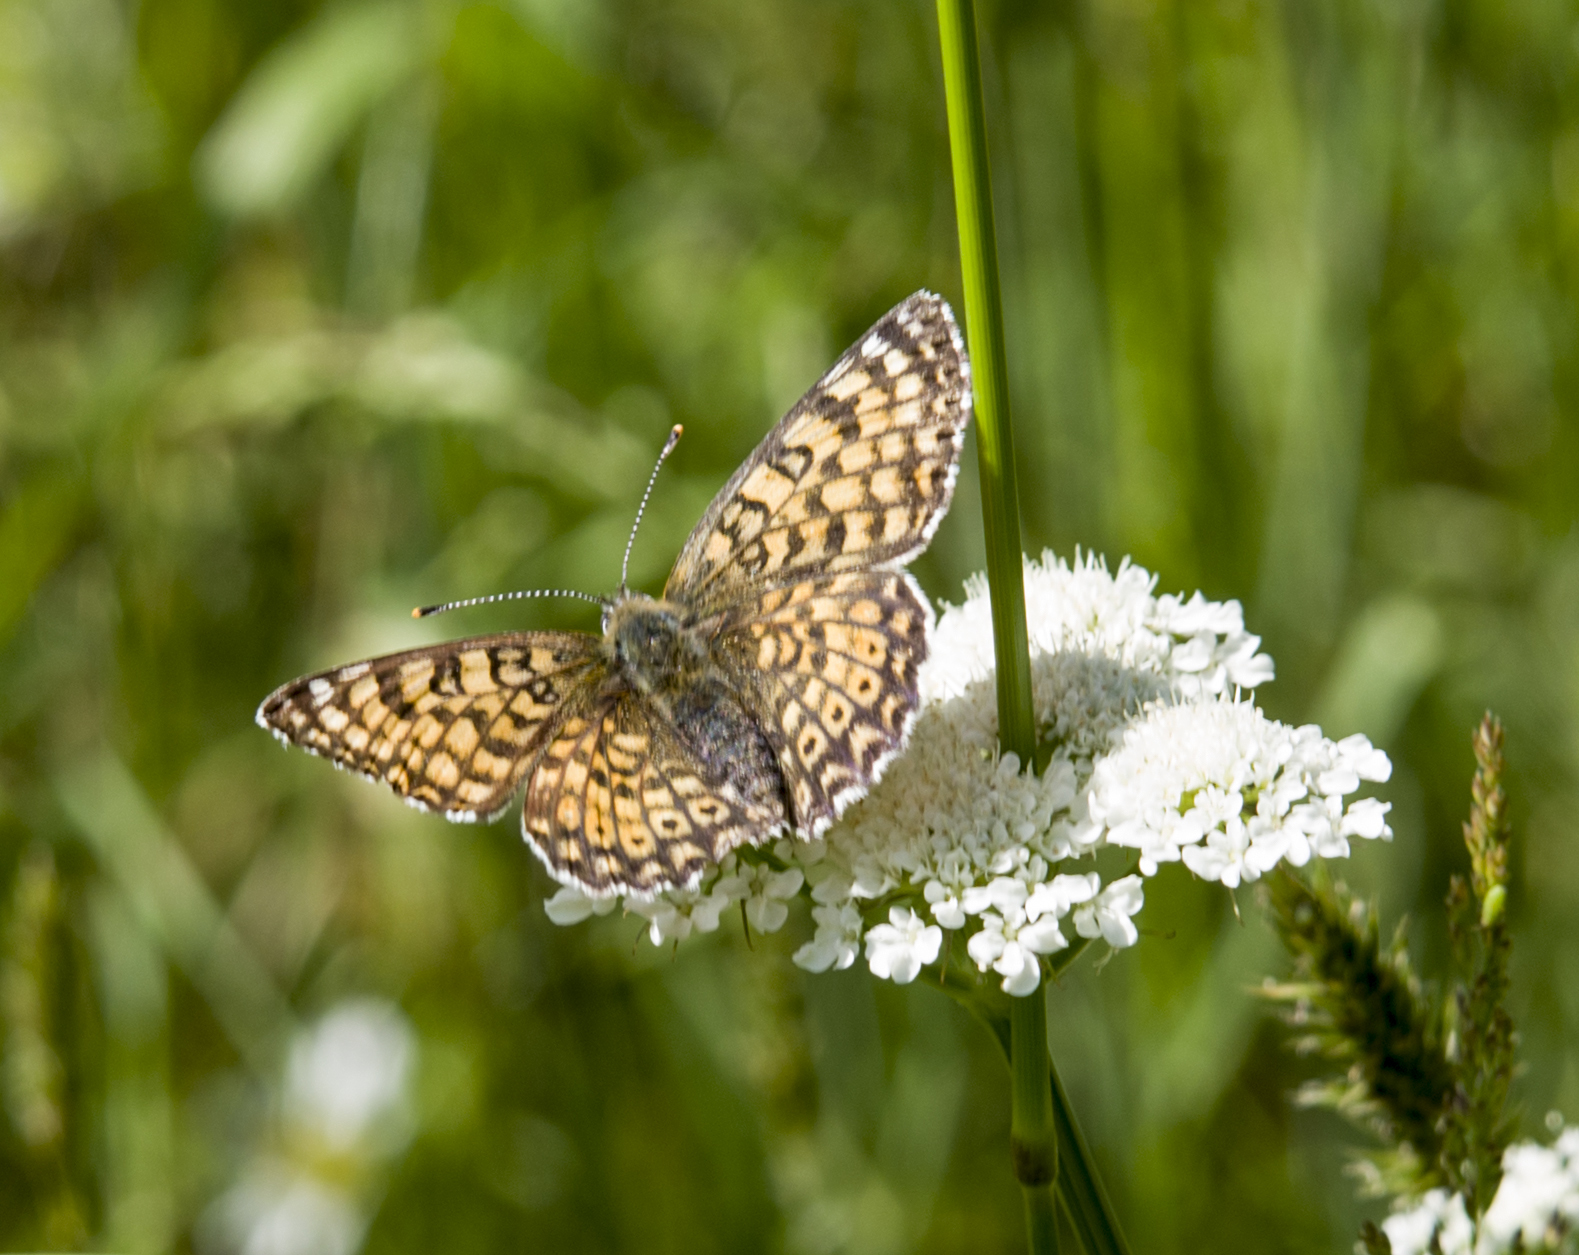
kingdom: Animalia
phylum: Arthropoda
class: Insecta
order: Lepidoptera
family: Nymphalidae
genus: Melitaea
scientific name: Melitaea cinxia
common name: Glanville fritillary
